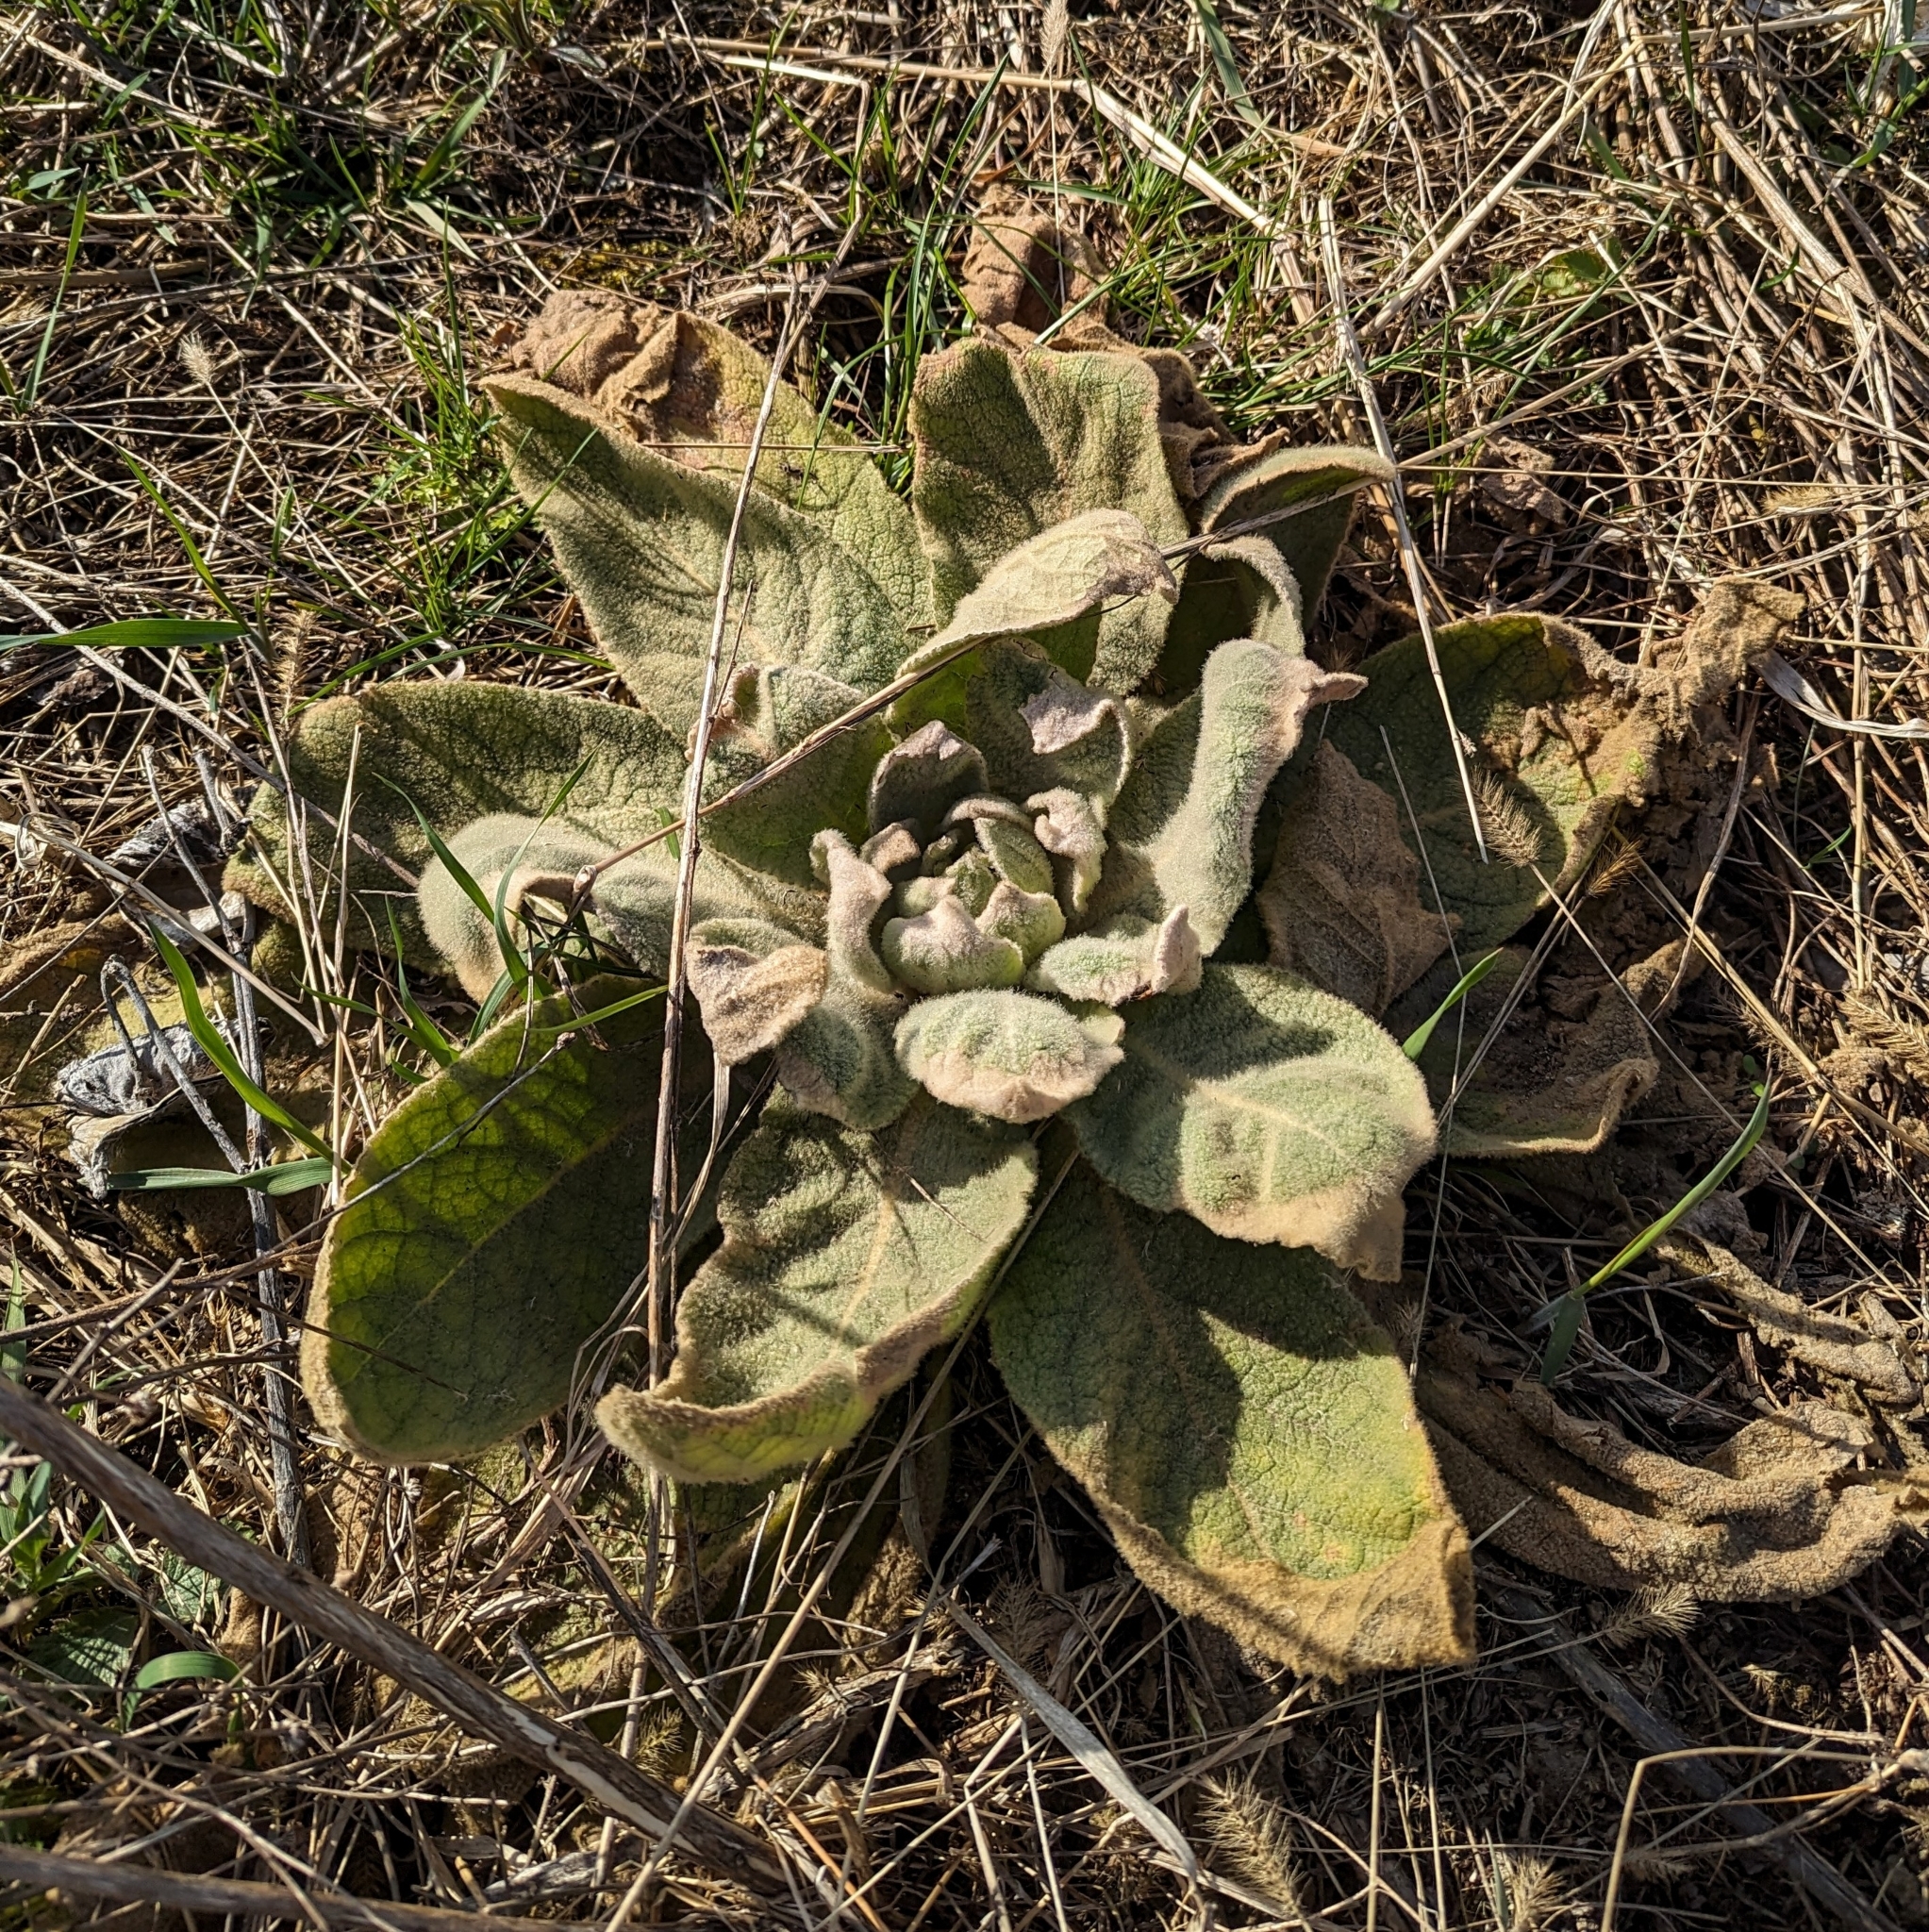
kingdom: Plantae
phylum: Tracheophyta
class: Magnoliopsida
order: Lamiales
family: Scrophulariaceae
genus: Verbascum
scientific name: Verbascum thapsus
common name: Common mullein
